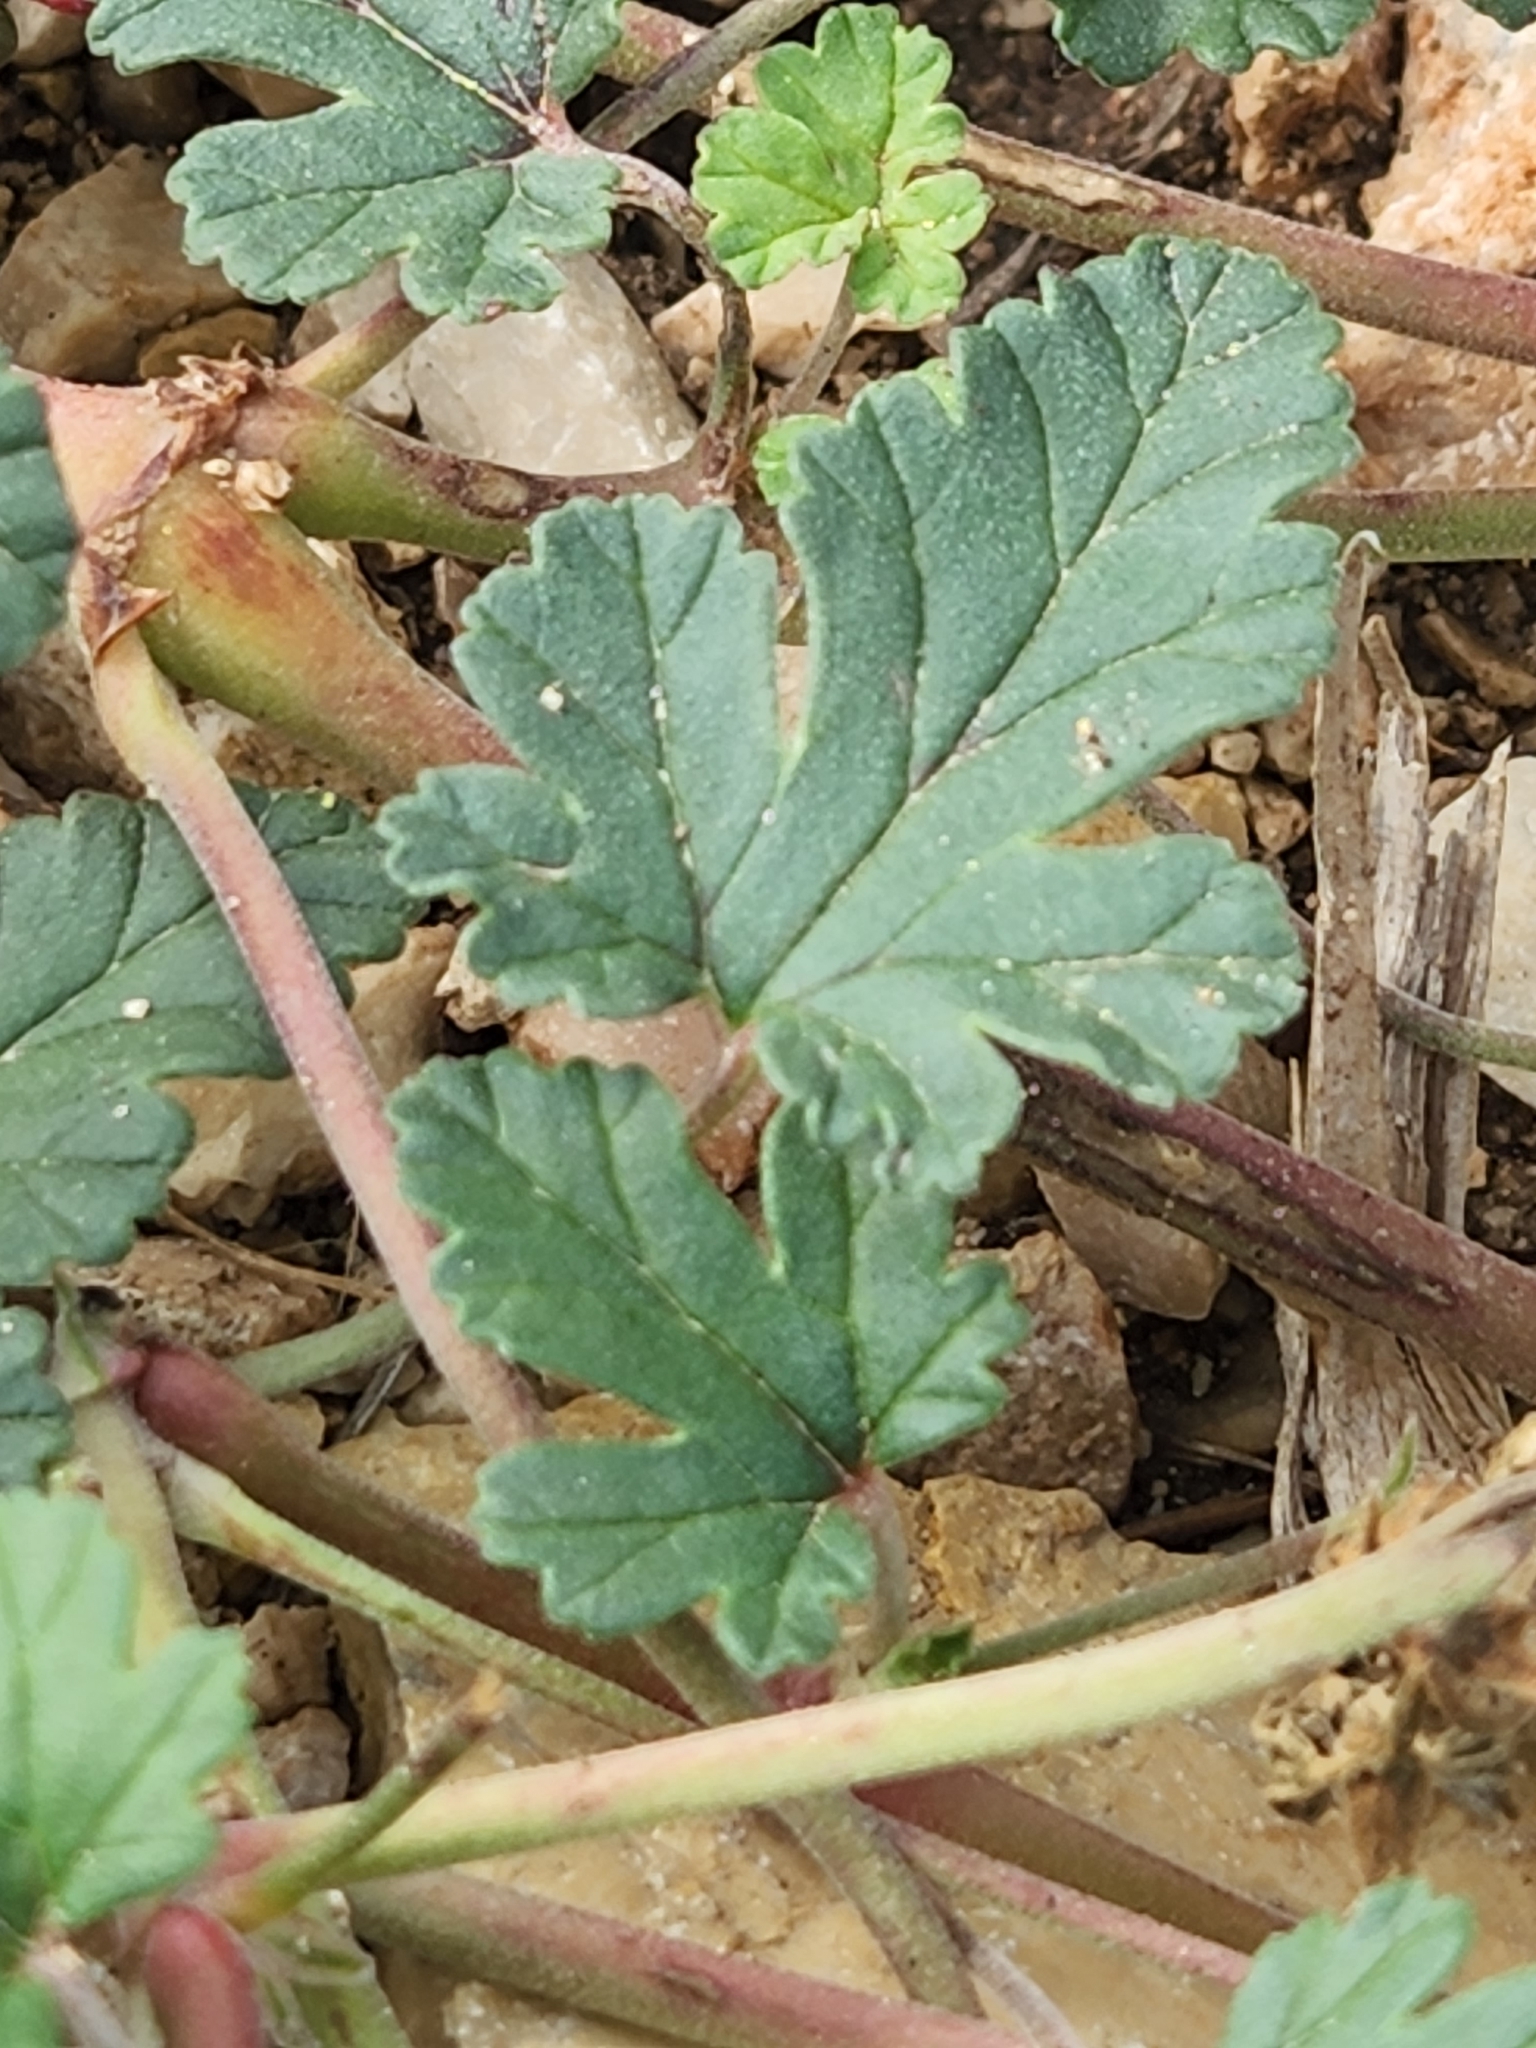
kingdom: Plantae
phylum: Tracheophyta
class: Magnoliopsida
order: Geraniales
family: Geraniaceae
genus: Erodium
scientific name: Erodium texanum
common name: Texas stork's-bill
